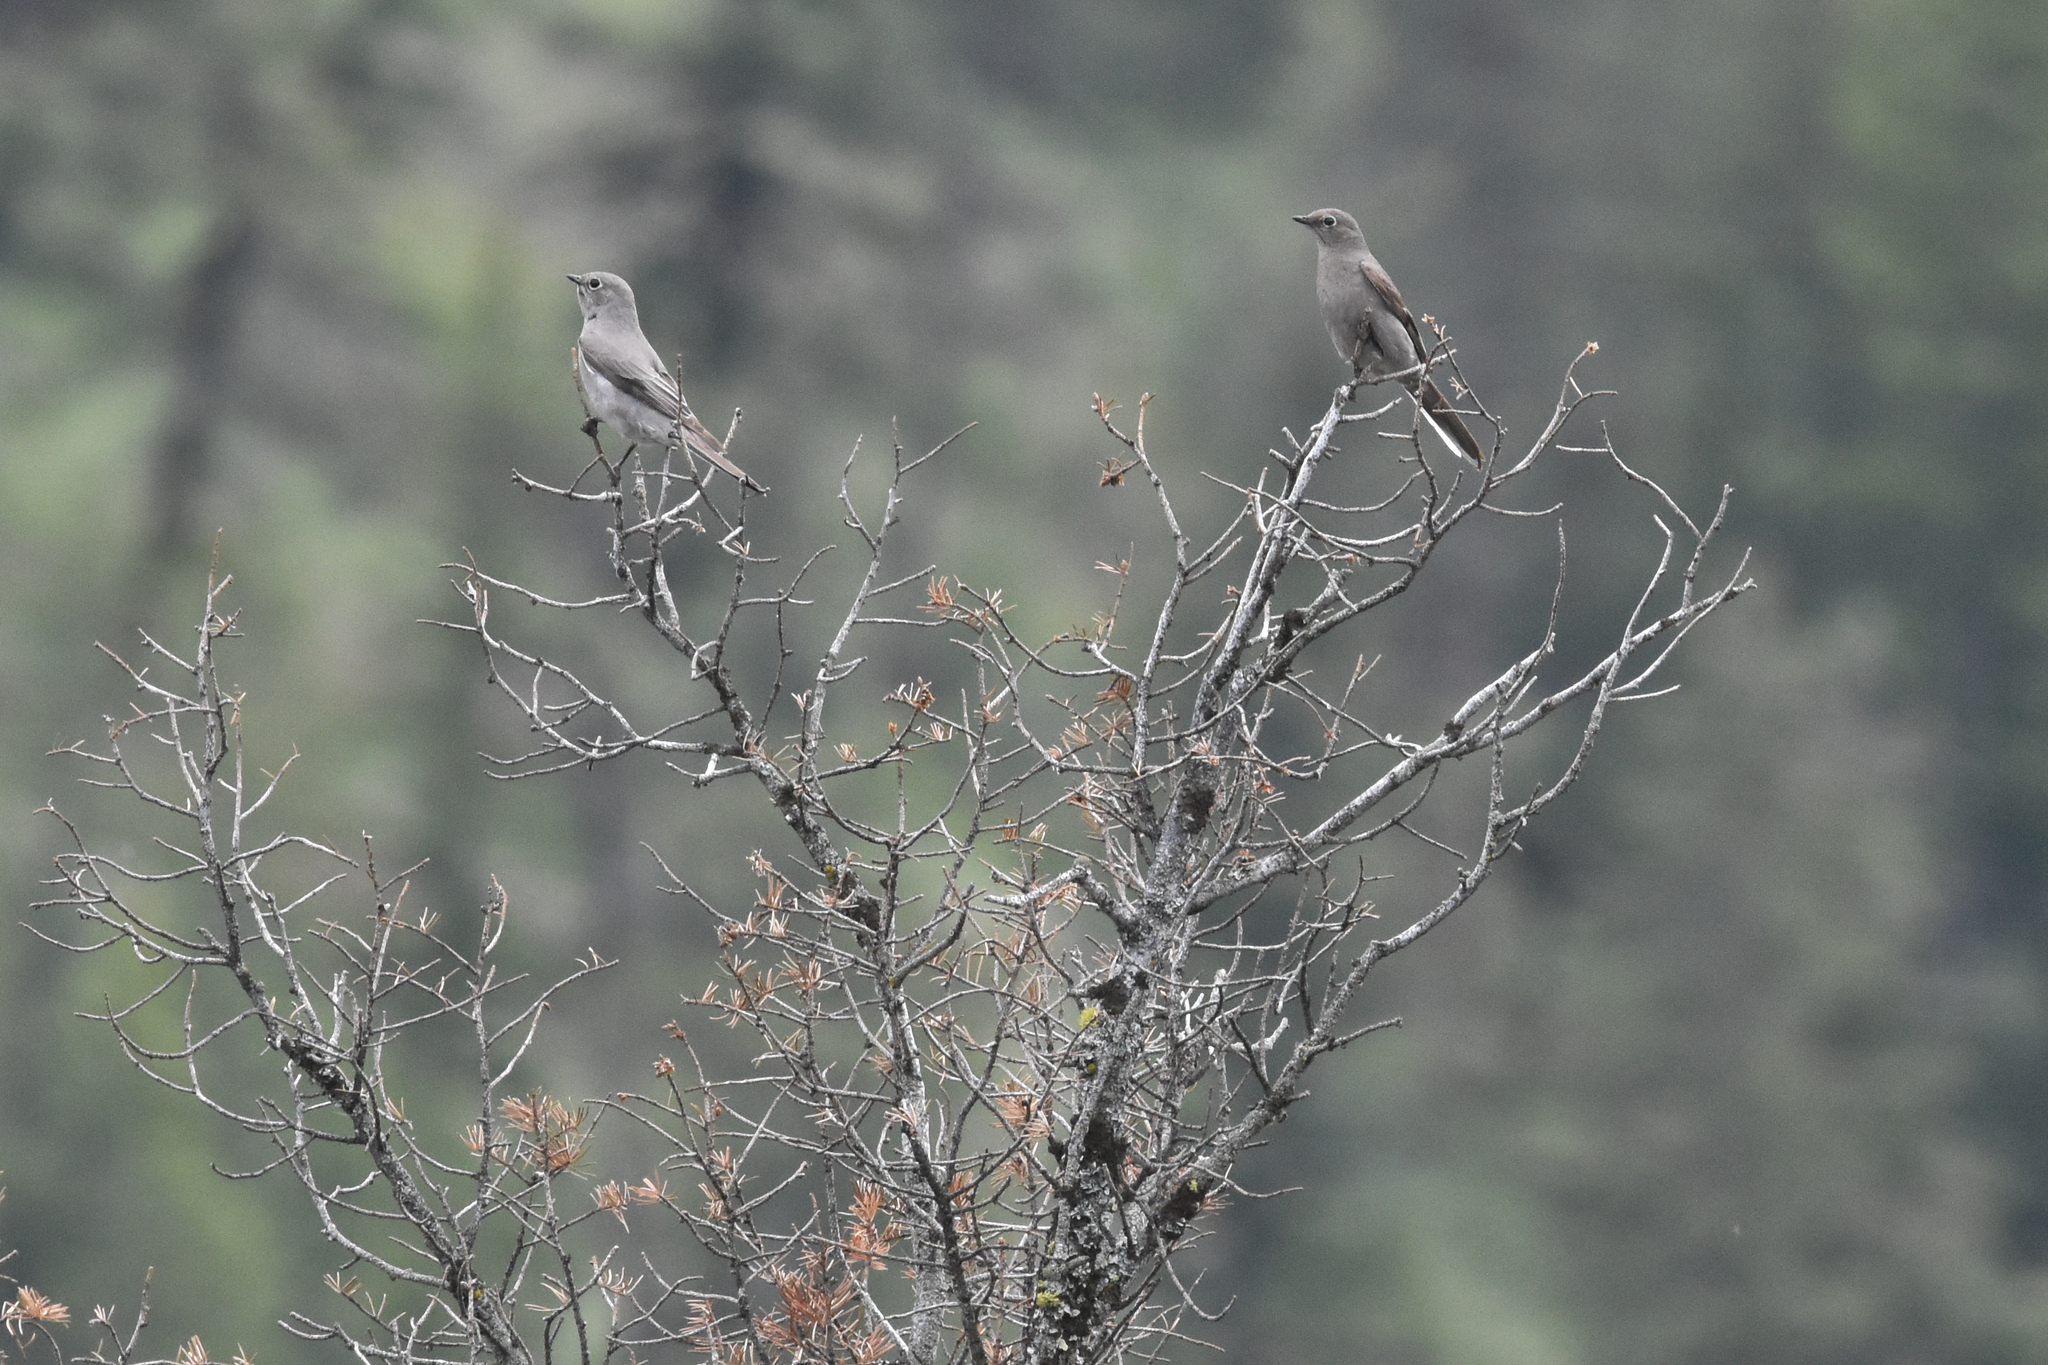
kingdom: Animalia
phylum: Chordata
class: Aves
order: Passeriformes
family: Turdidae
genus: Myadestes
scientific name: Myadestes townsendi
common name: Townsend's solitaire
